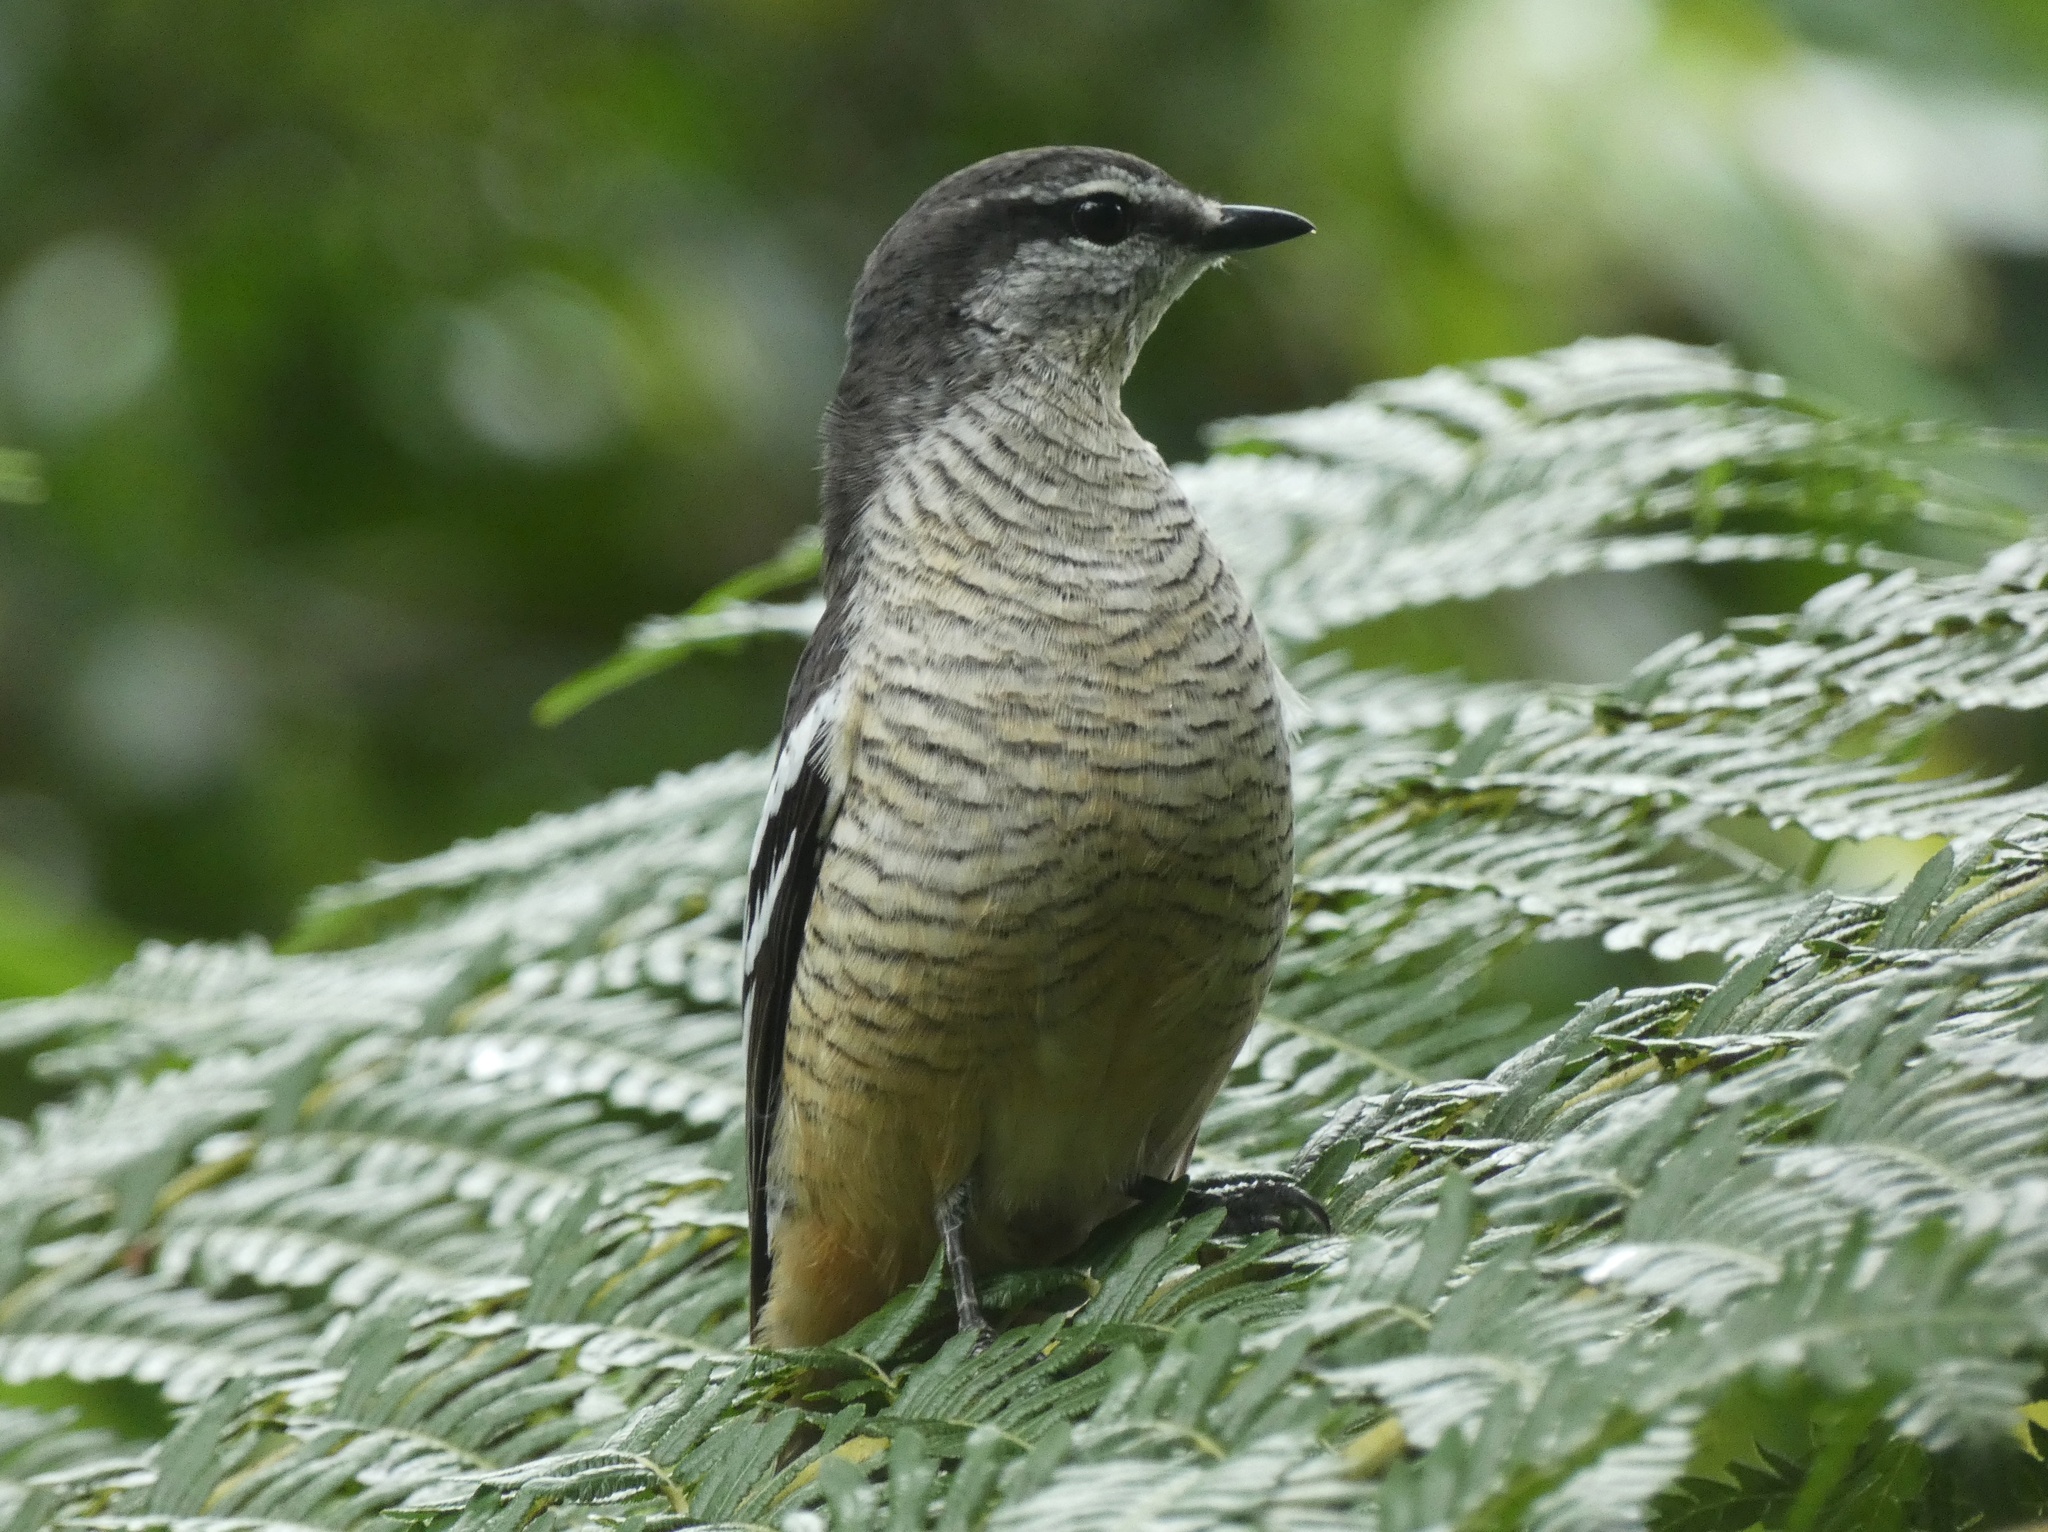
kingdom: Animalia
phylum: Chordata
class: Aves
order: Passeriformes
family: Campephagidae
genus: Lalage
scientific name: Lalage leucomela
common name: Varied triller
